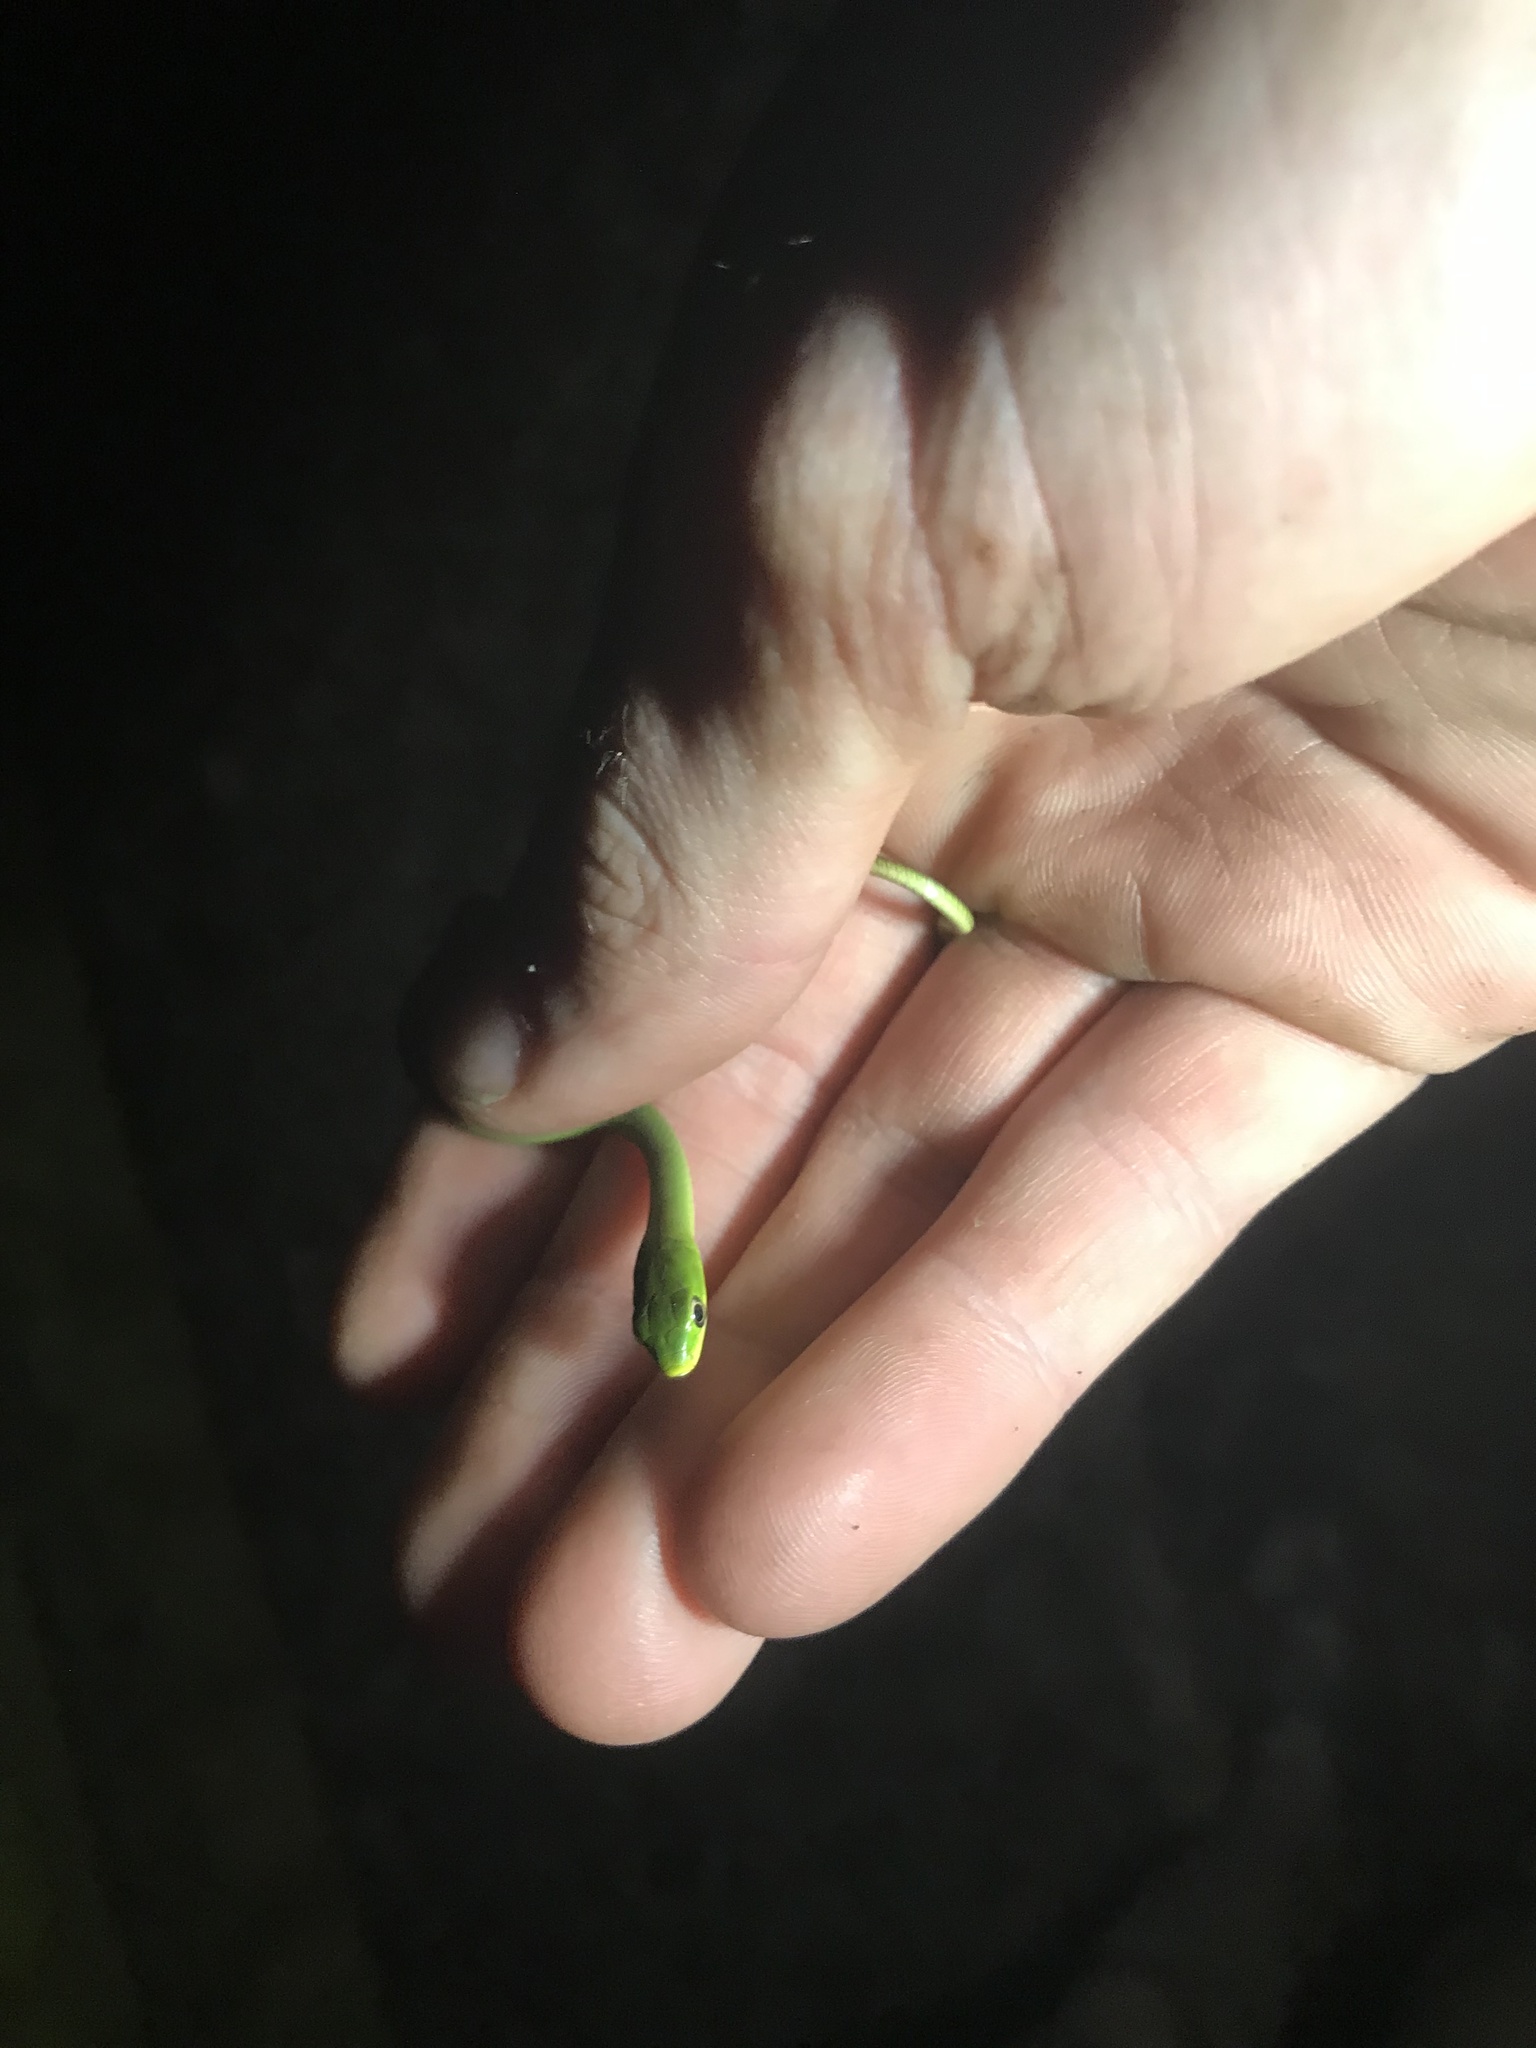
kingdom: Animalia
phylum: Chordata
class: Squamata
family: Colubridae
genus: Opheodrys
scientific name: Opheodrys aestivus
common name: Rough greensnake
